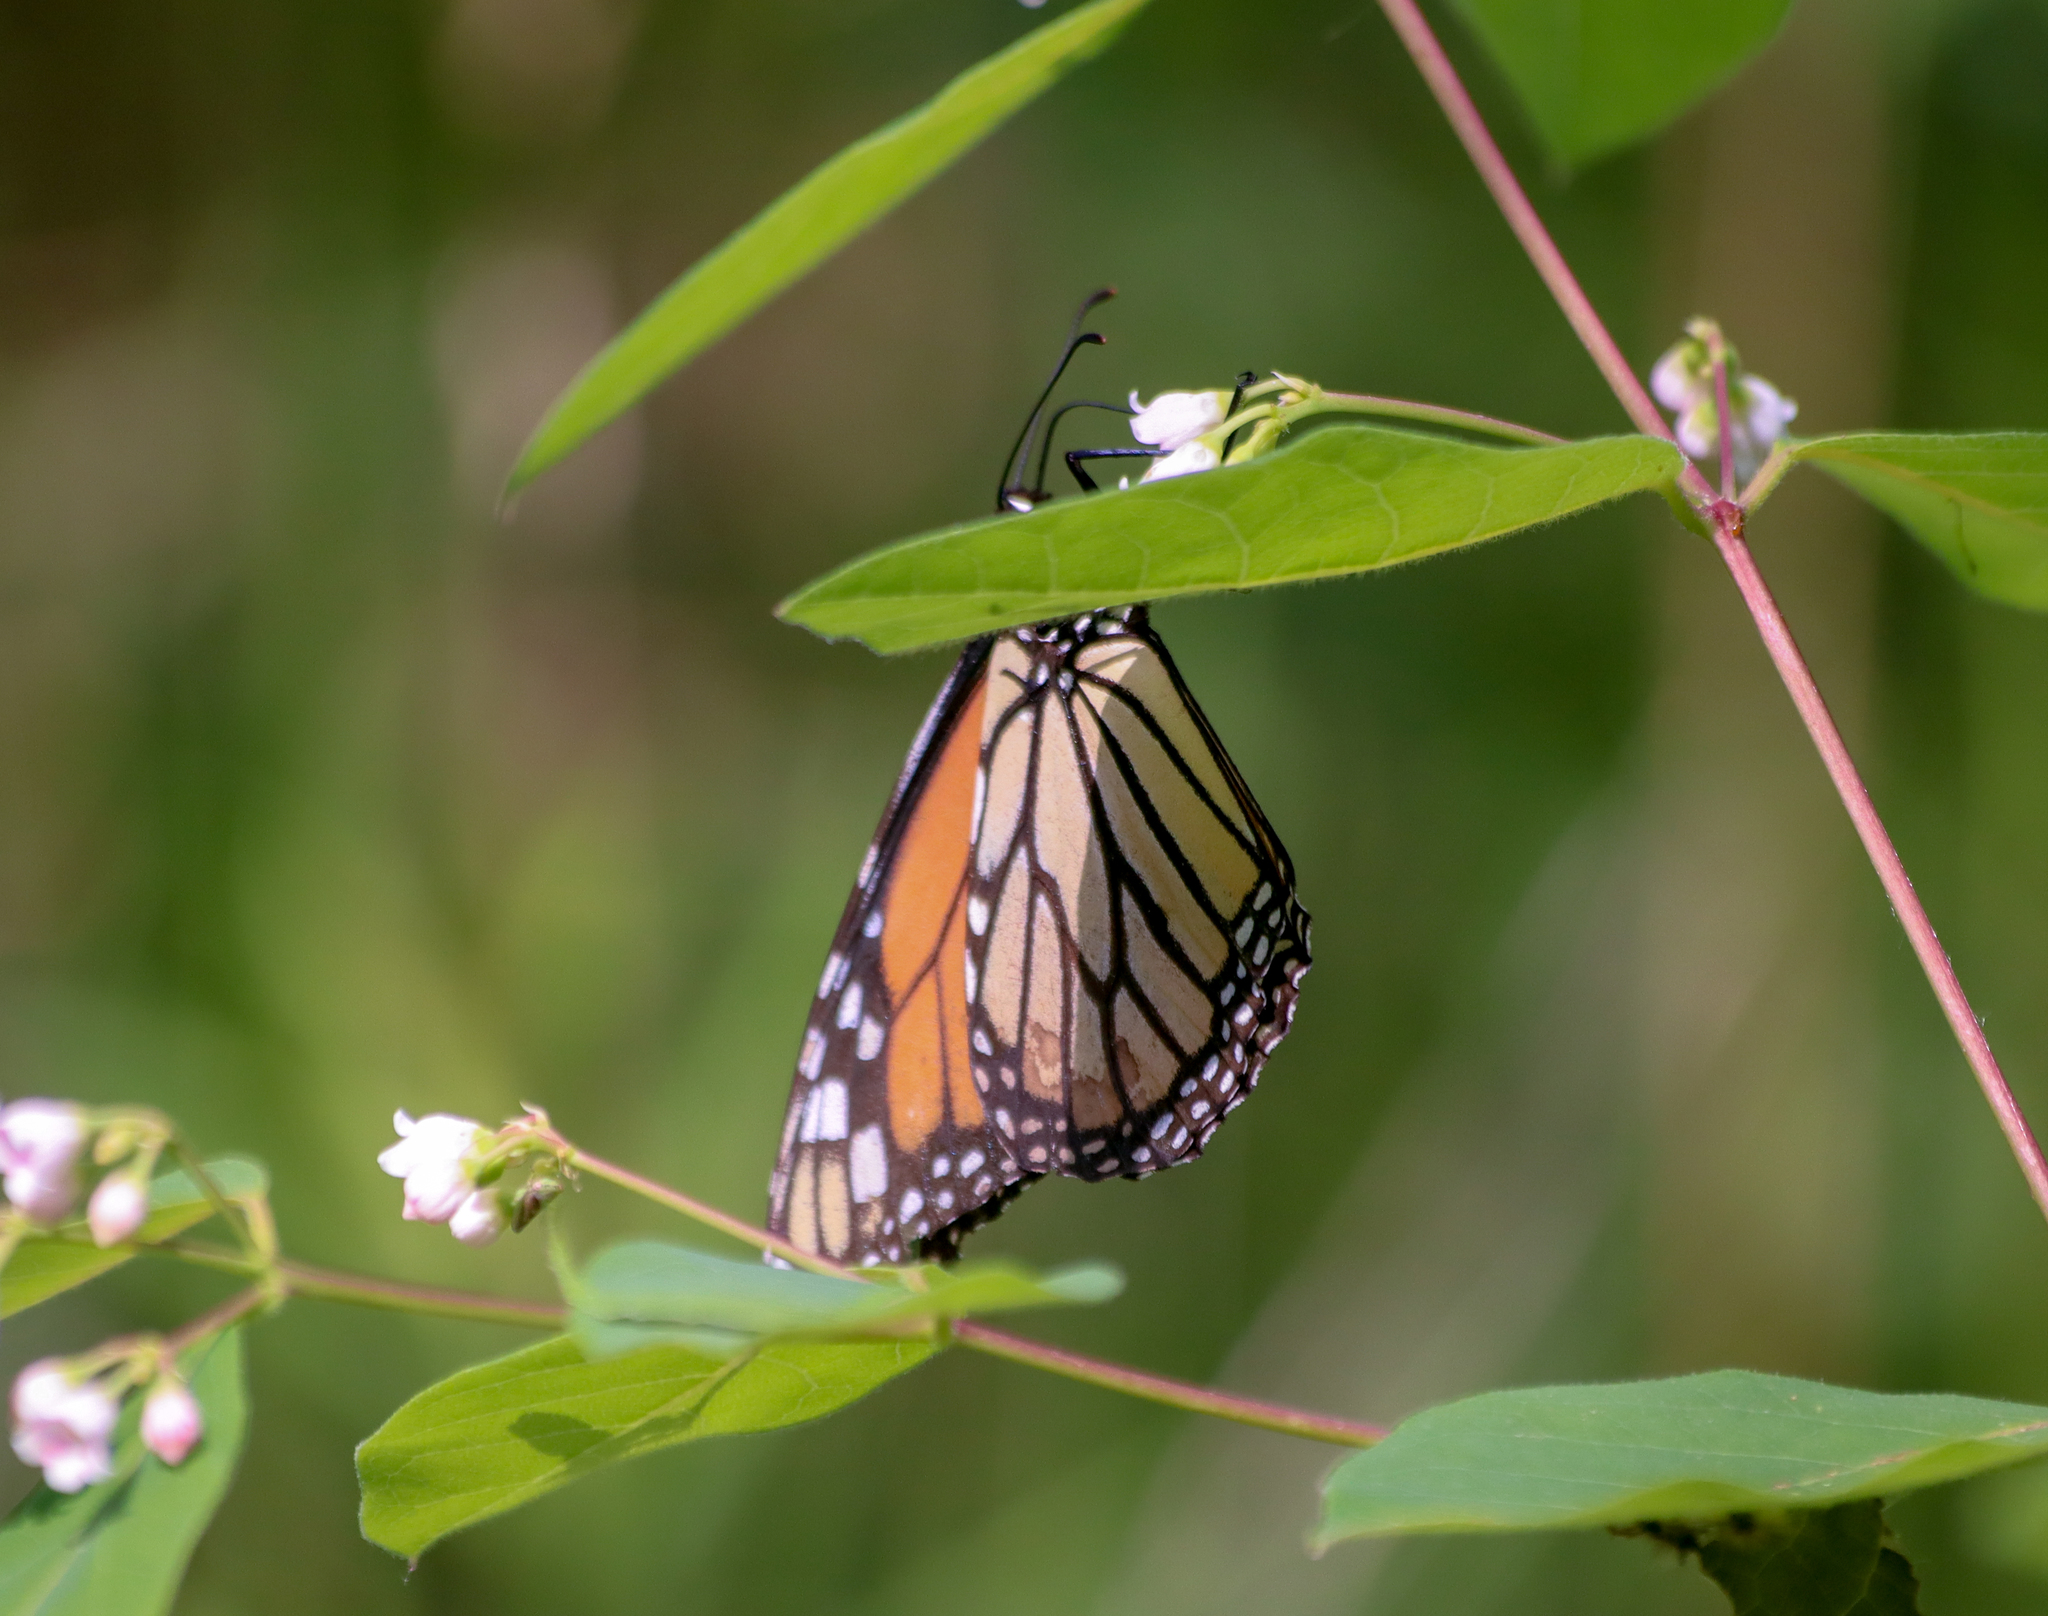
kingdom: Animalia
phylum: Arthropoda
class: Insecta
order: Lepidoptera
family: Nymphalidae
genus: Danaus
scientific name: Danaus plexippus
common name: Monarch
